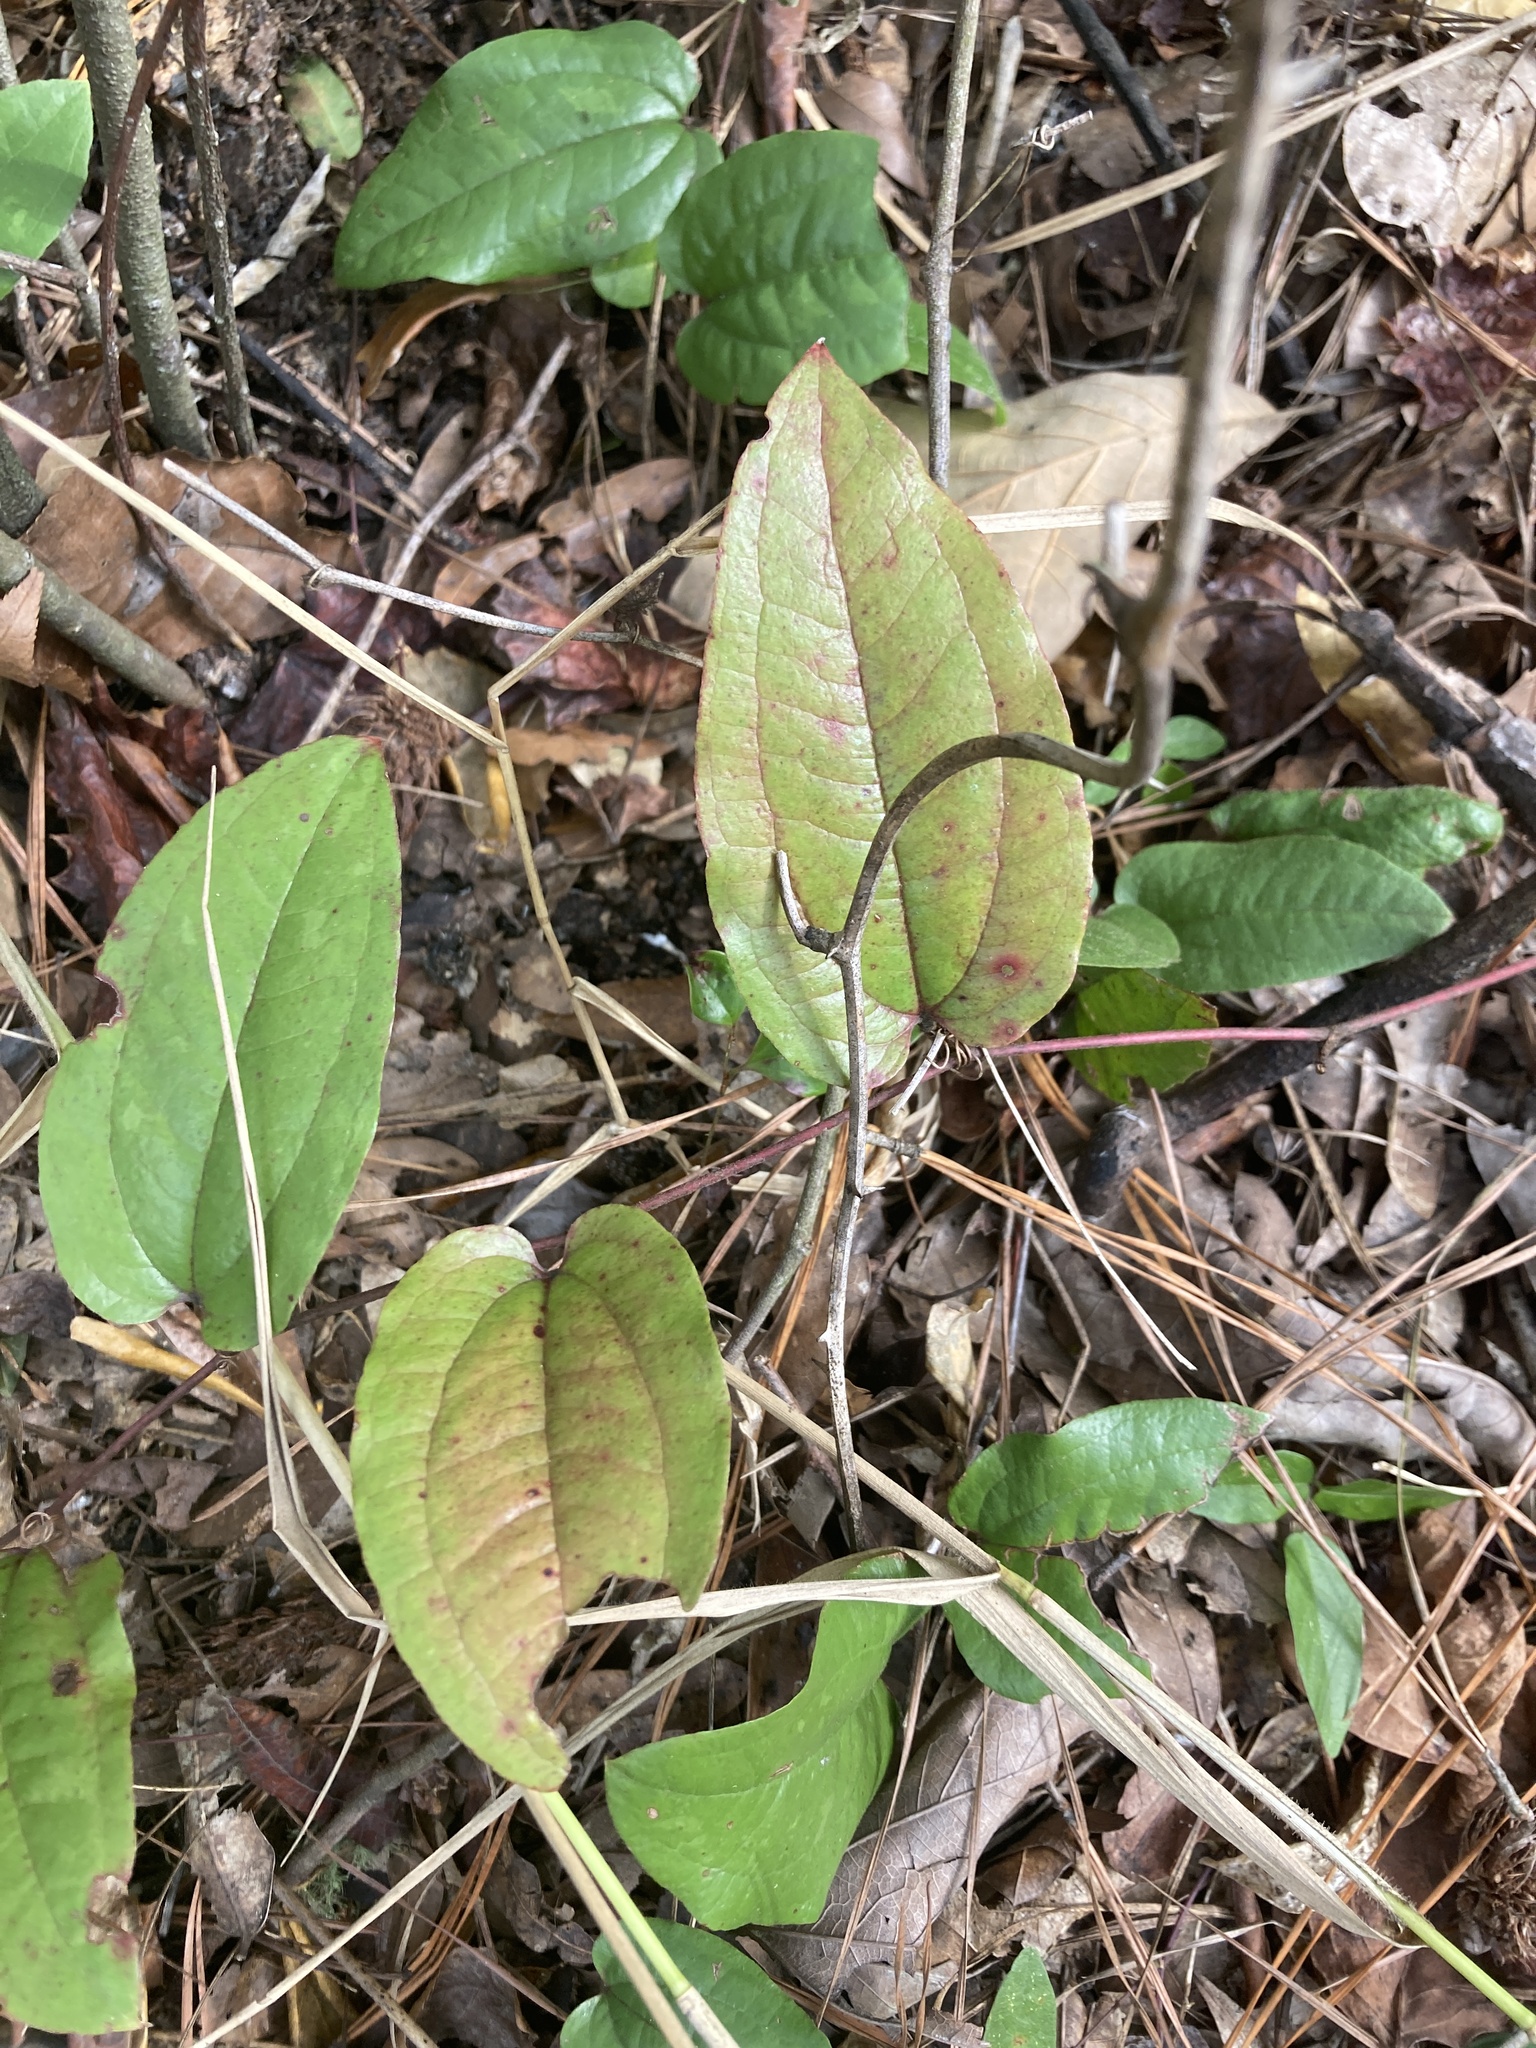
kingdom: Plantae
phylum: Tracheophyta
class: Liliopsida
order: Liliales
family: Smilacaceae
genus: Smilax
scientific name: Smilax pumila
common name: Sarsaparilla-vine
